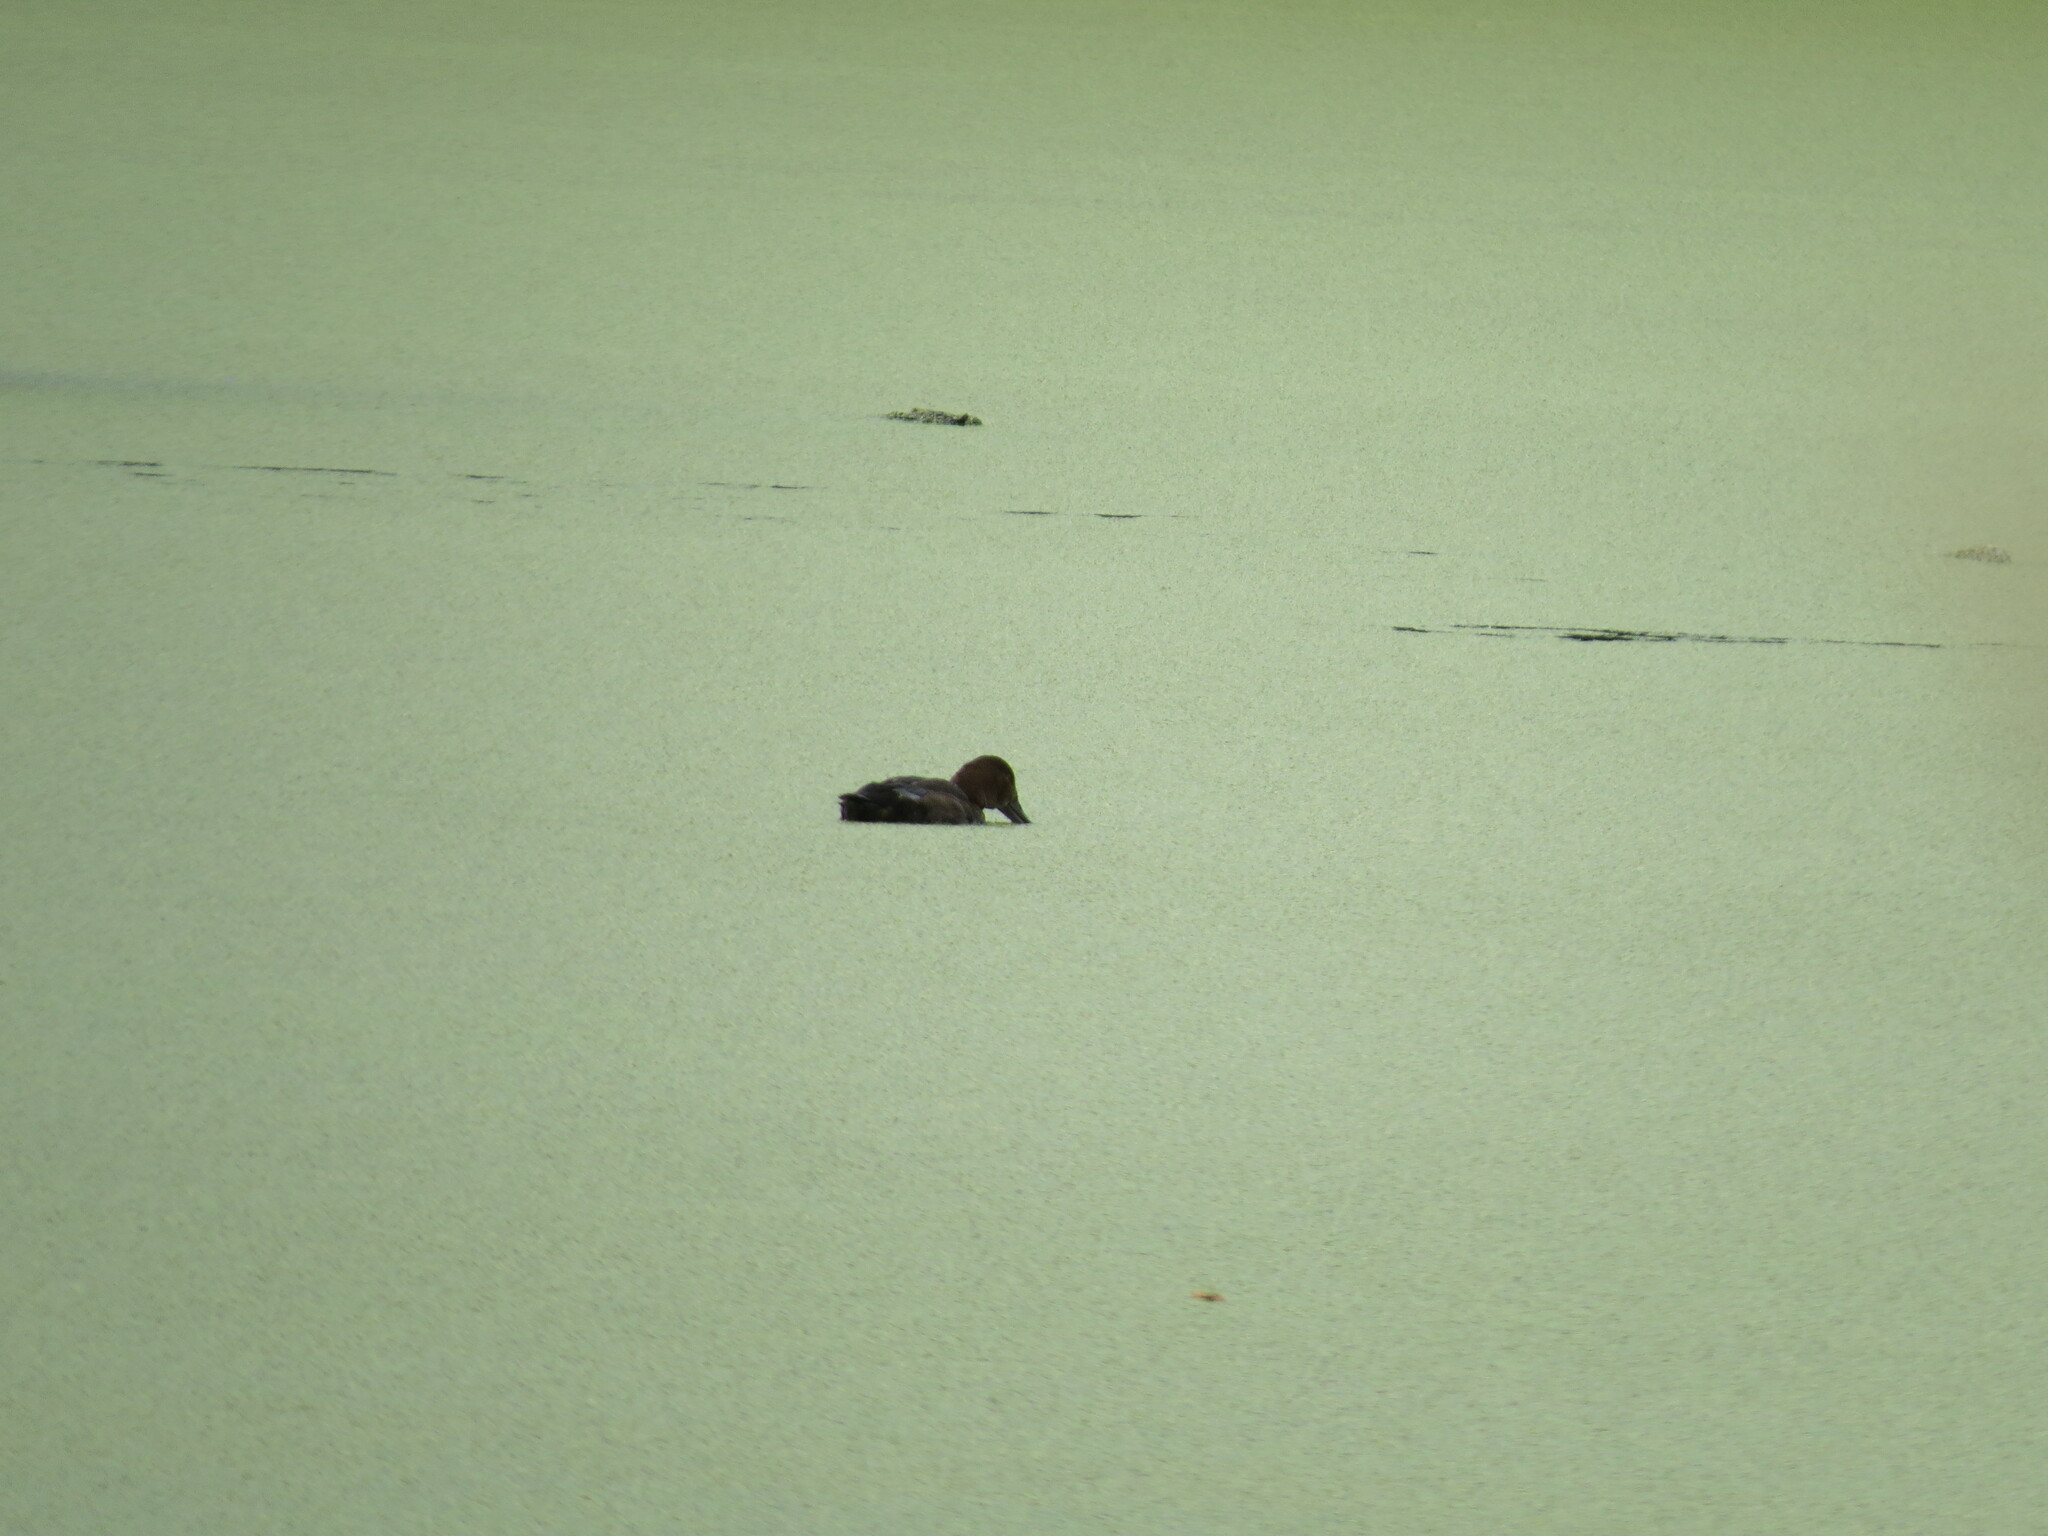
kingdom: Animalia
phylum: Chordata
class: Aves
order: Anseriformes
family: Anatidae
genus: Aythya
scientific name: Aythya ferina
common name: Common pochard
